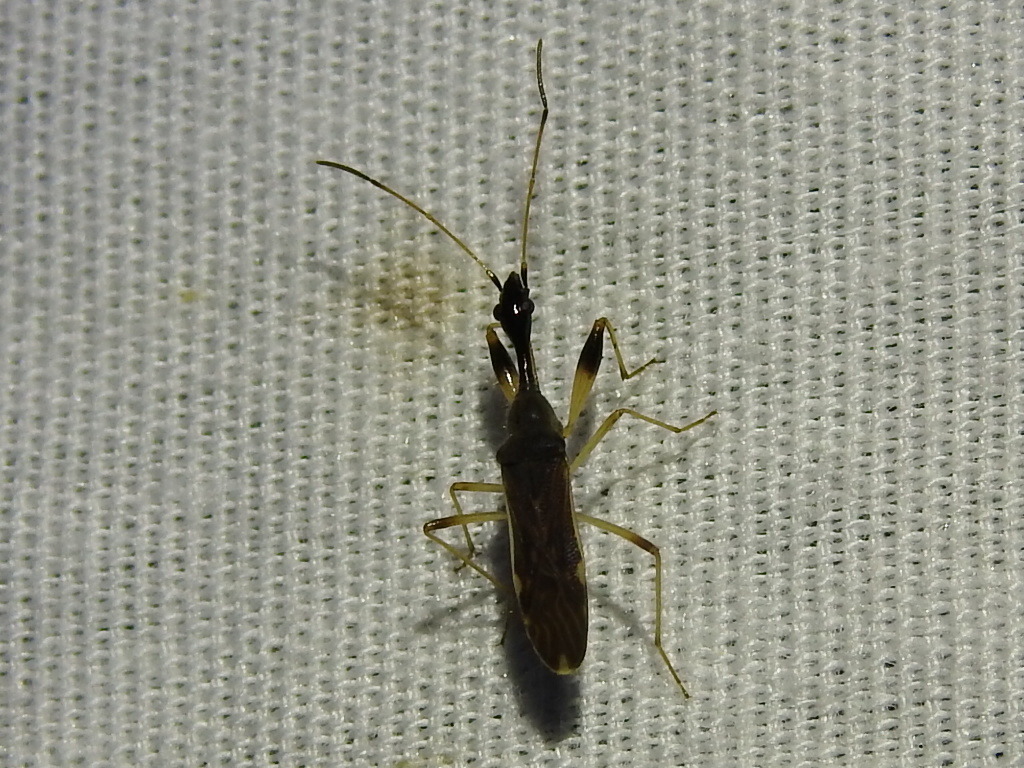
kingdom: Animalia
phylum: Arthropoda
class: Insecta
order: Hemiptera
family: Rhyparochromidae
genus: Myodocha
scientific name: Myodocha serripes
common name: Long-necked seed bug
